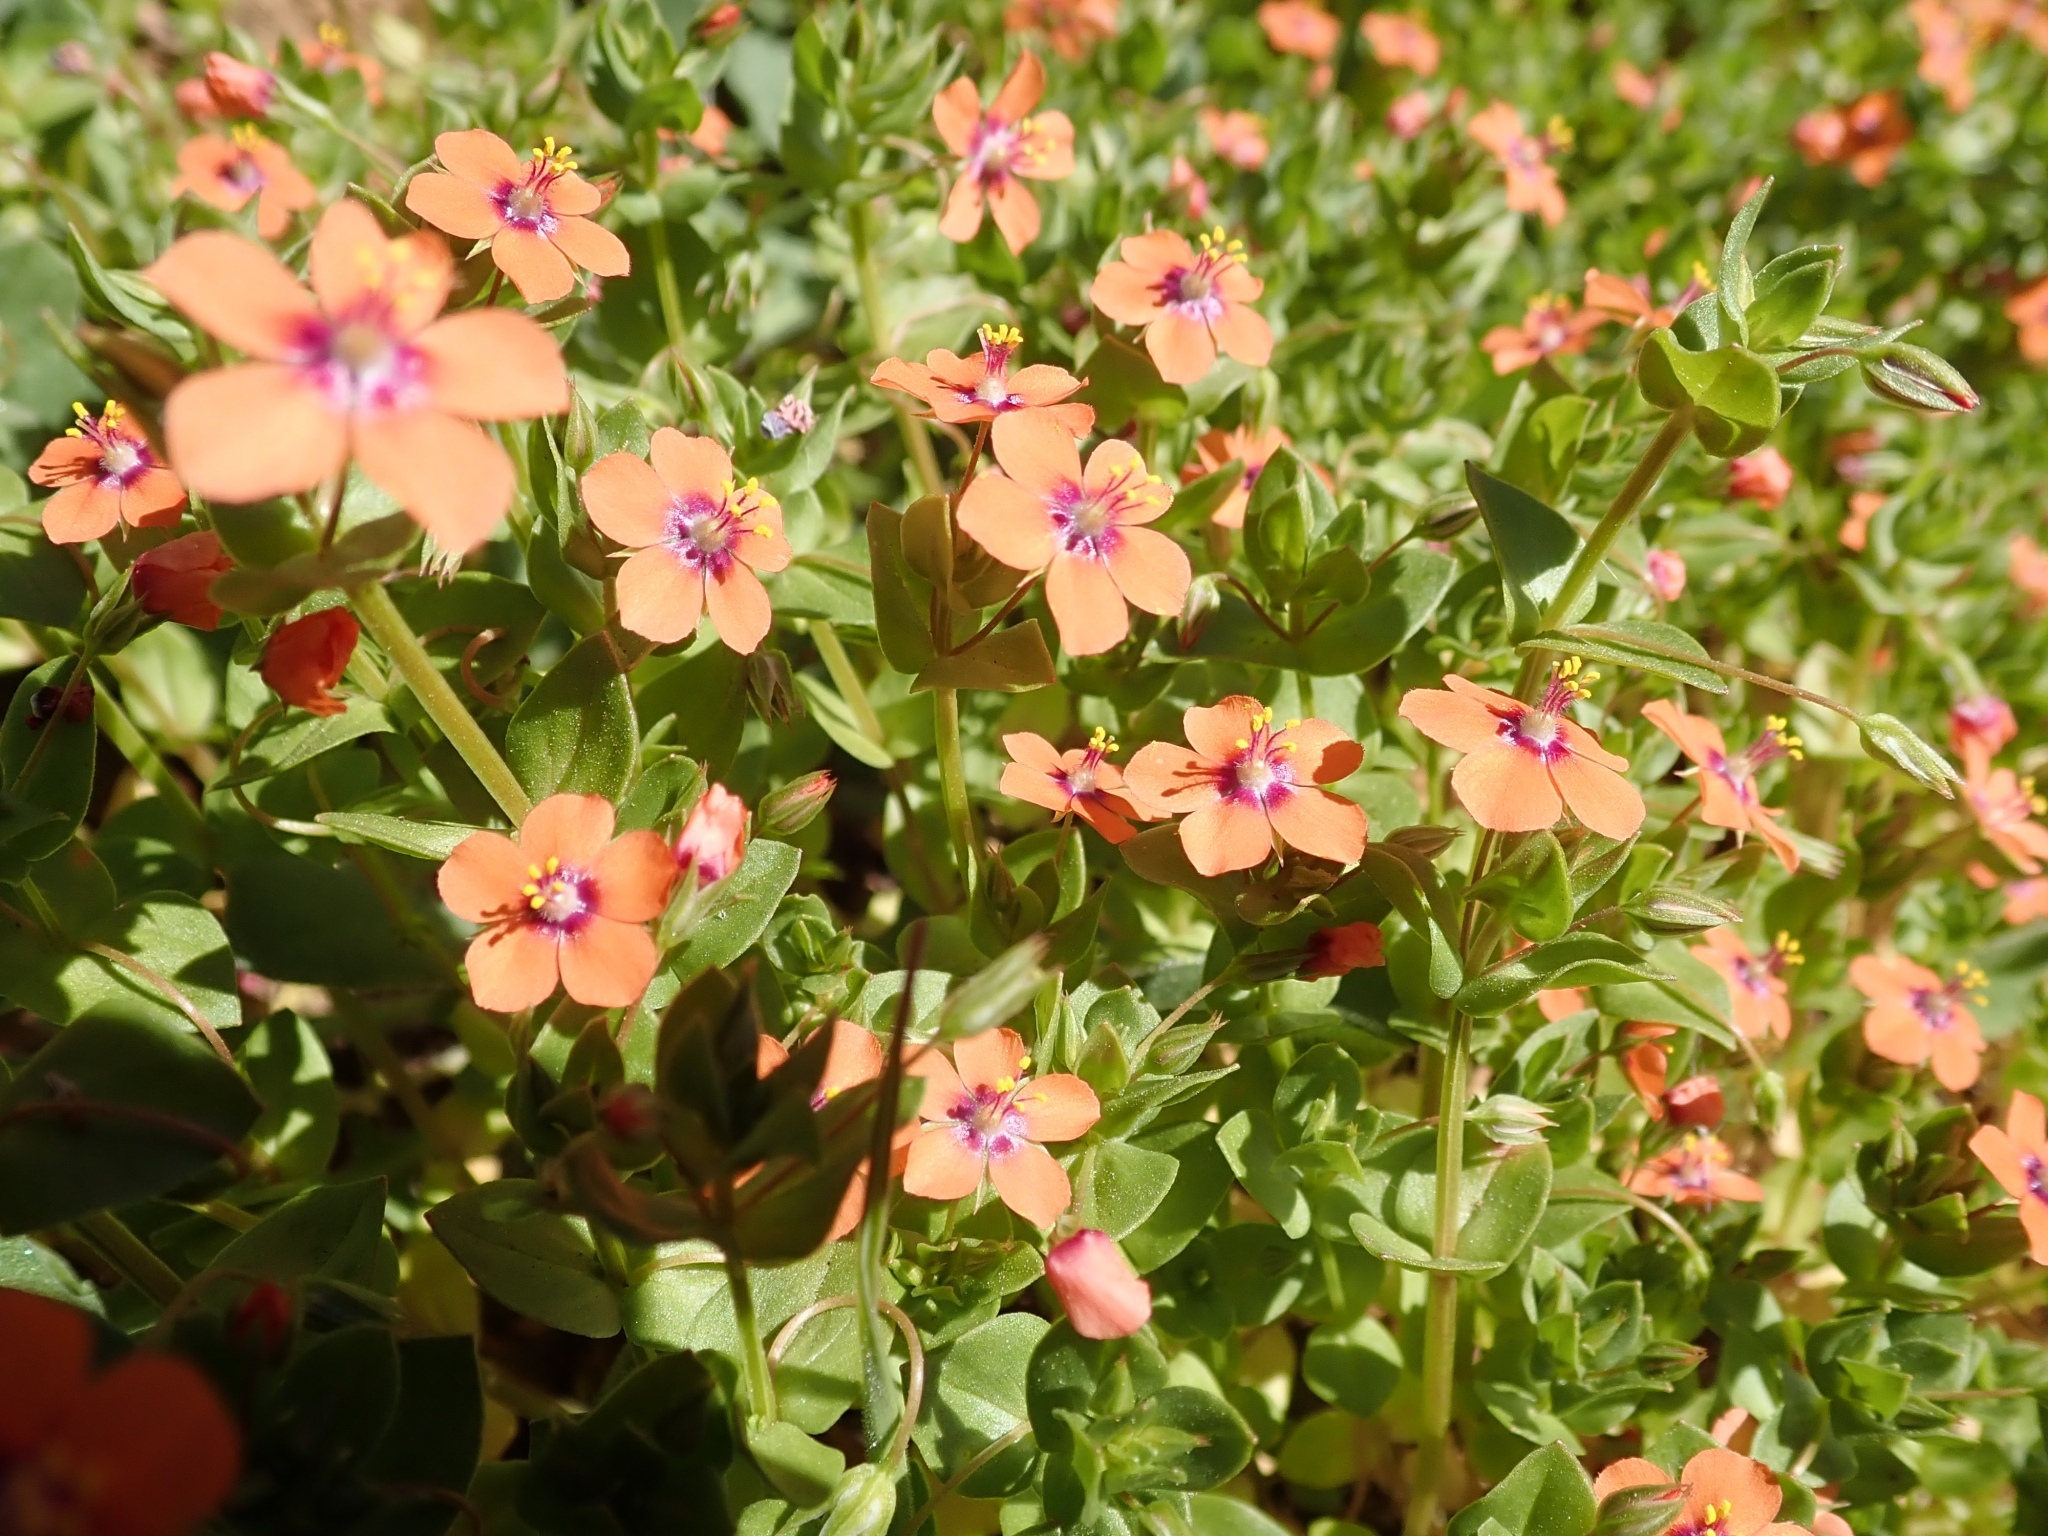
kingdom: Plantae
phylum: Tracheophyta
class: Magnoliopsida
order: Ericales
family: Primulaceae
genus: Lysimachia
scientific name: Lysimachia arvensis
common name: Scarlet pimpernel
